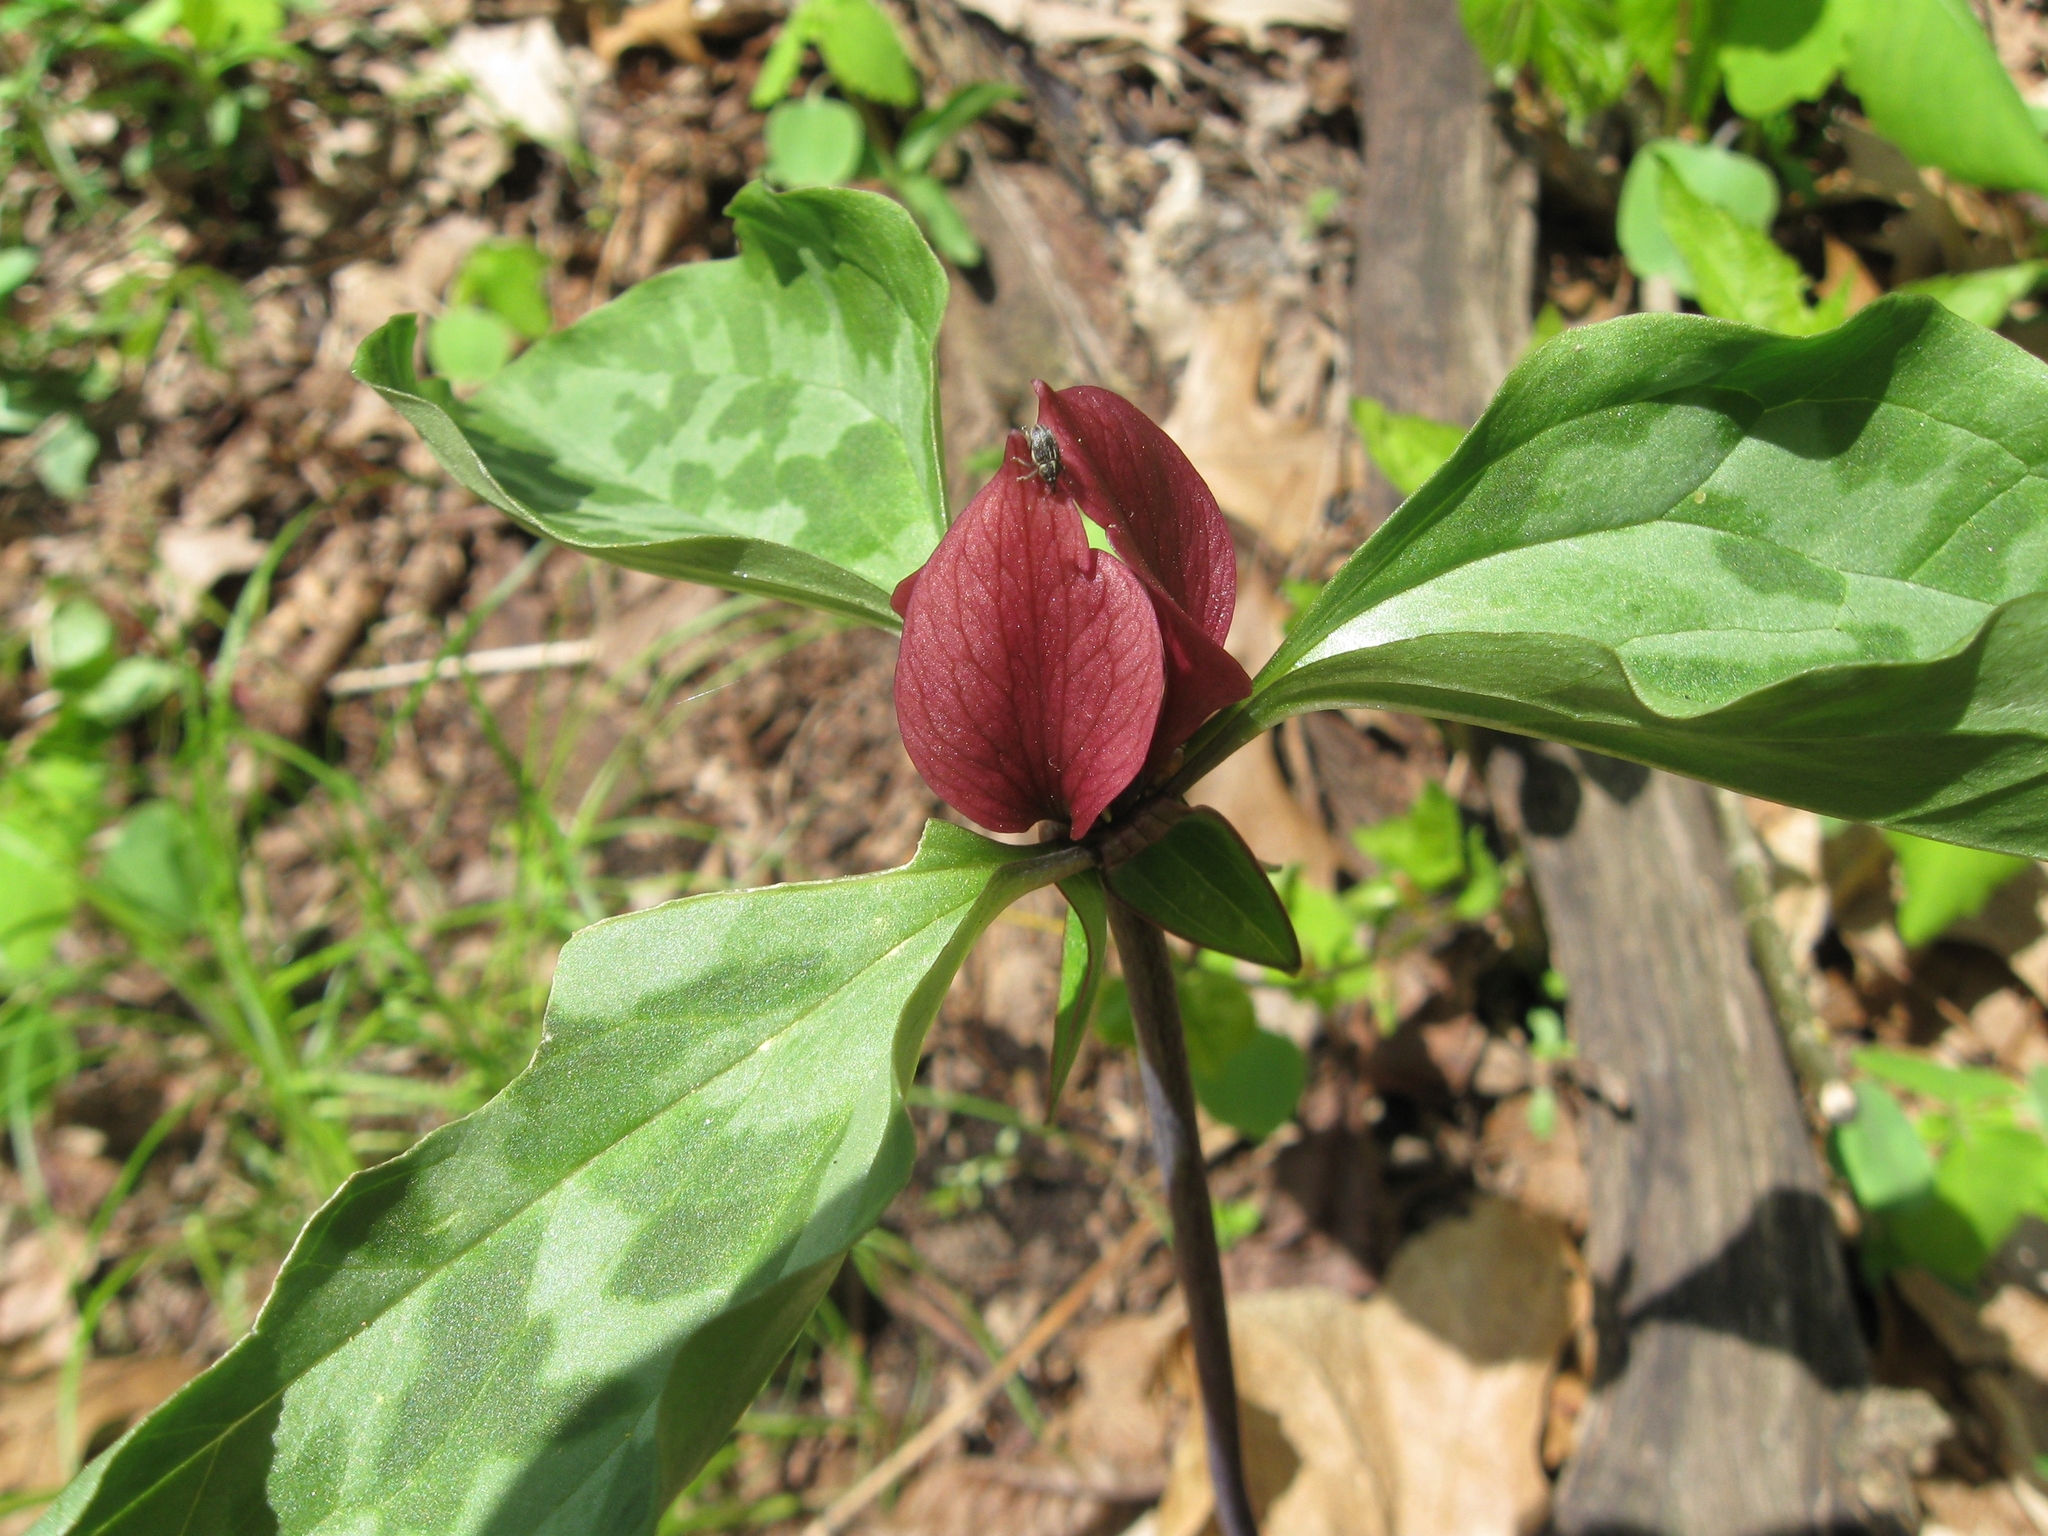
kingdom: Plantae
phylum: Tracheophyta
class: Liliopsida
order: Liliales
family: Melanthiaceae
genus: Trillium
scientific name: Trillium recurvatum
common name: Bloody butcher
